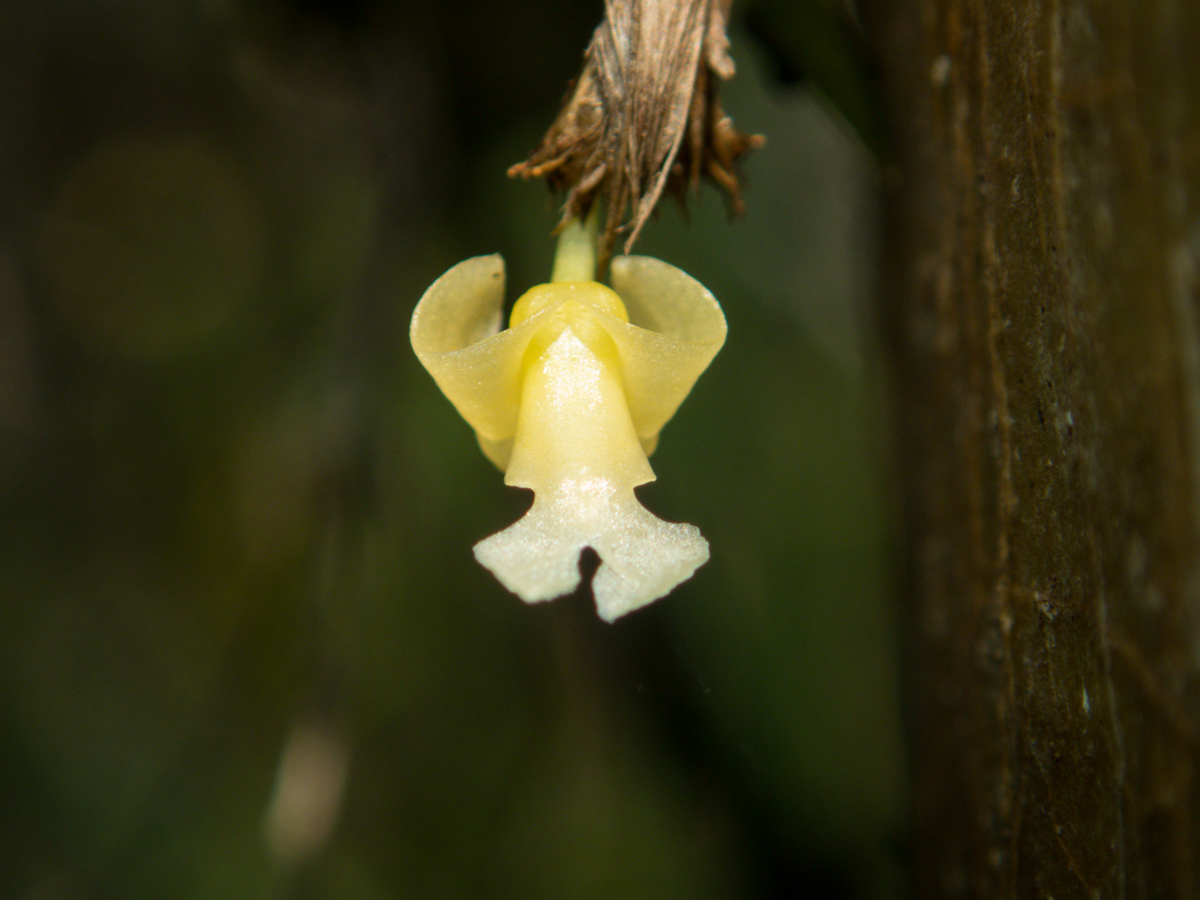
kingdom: Plantae
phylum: Tracheophyta
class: Liliopsida
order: Asparagales
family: Orchidaceae
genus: Dendrobium
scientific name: Dendrobium aloifolium
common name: Aloe-like dendrobium
